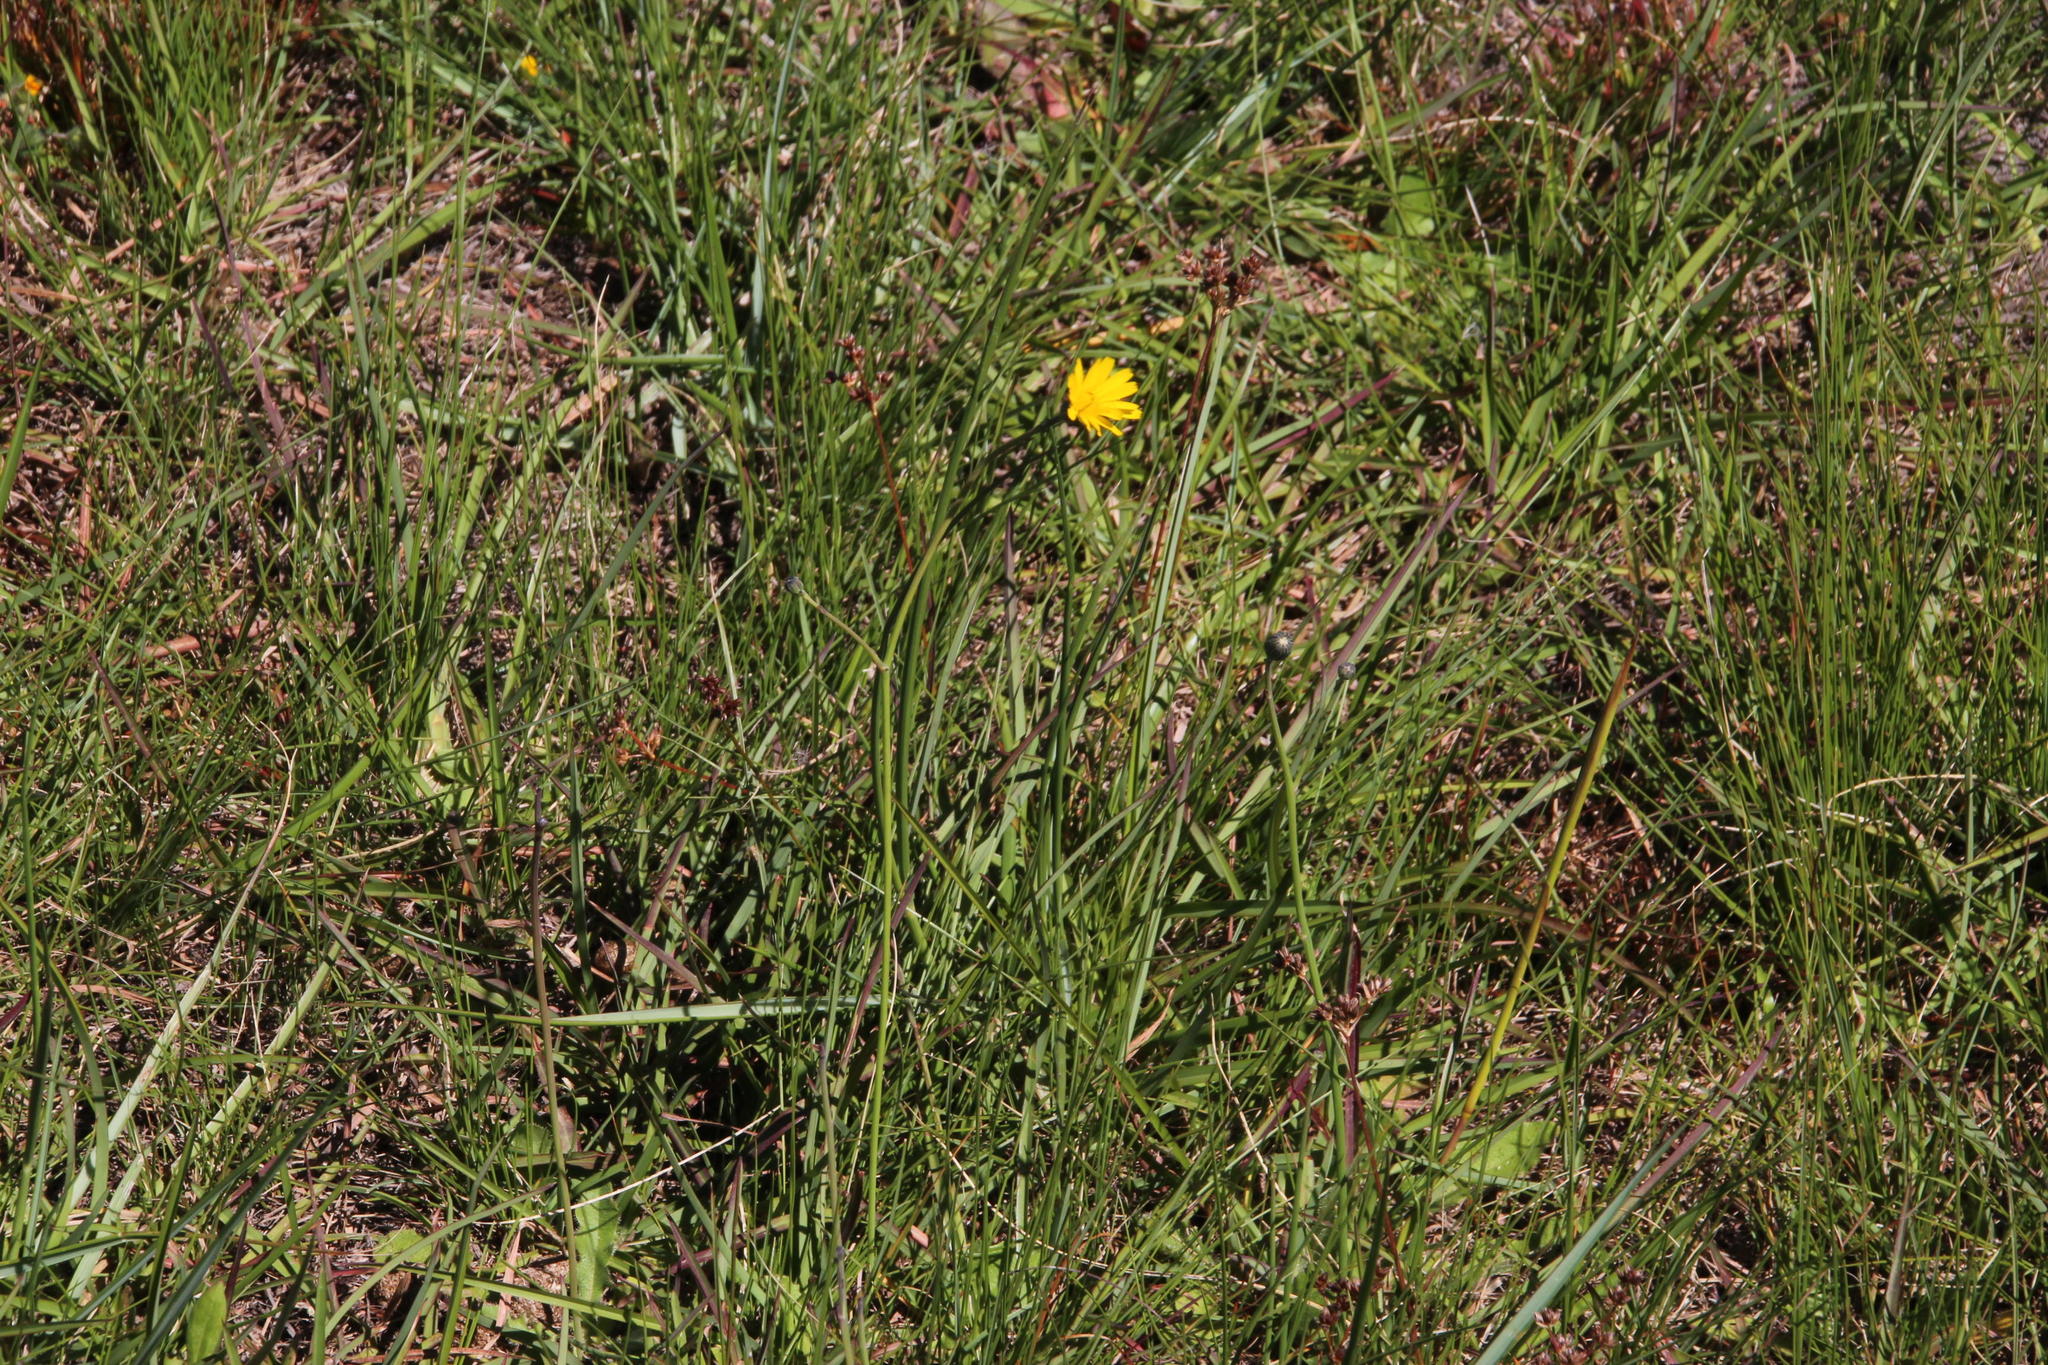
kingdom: Plantae
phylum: Tracheophyta
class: Magnoliopsida
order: Asterales
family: Asteraceae
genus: Hypochaeris
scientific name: Hypochaeris radicata
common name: Flatweed
